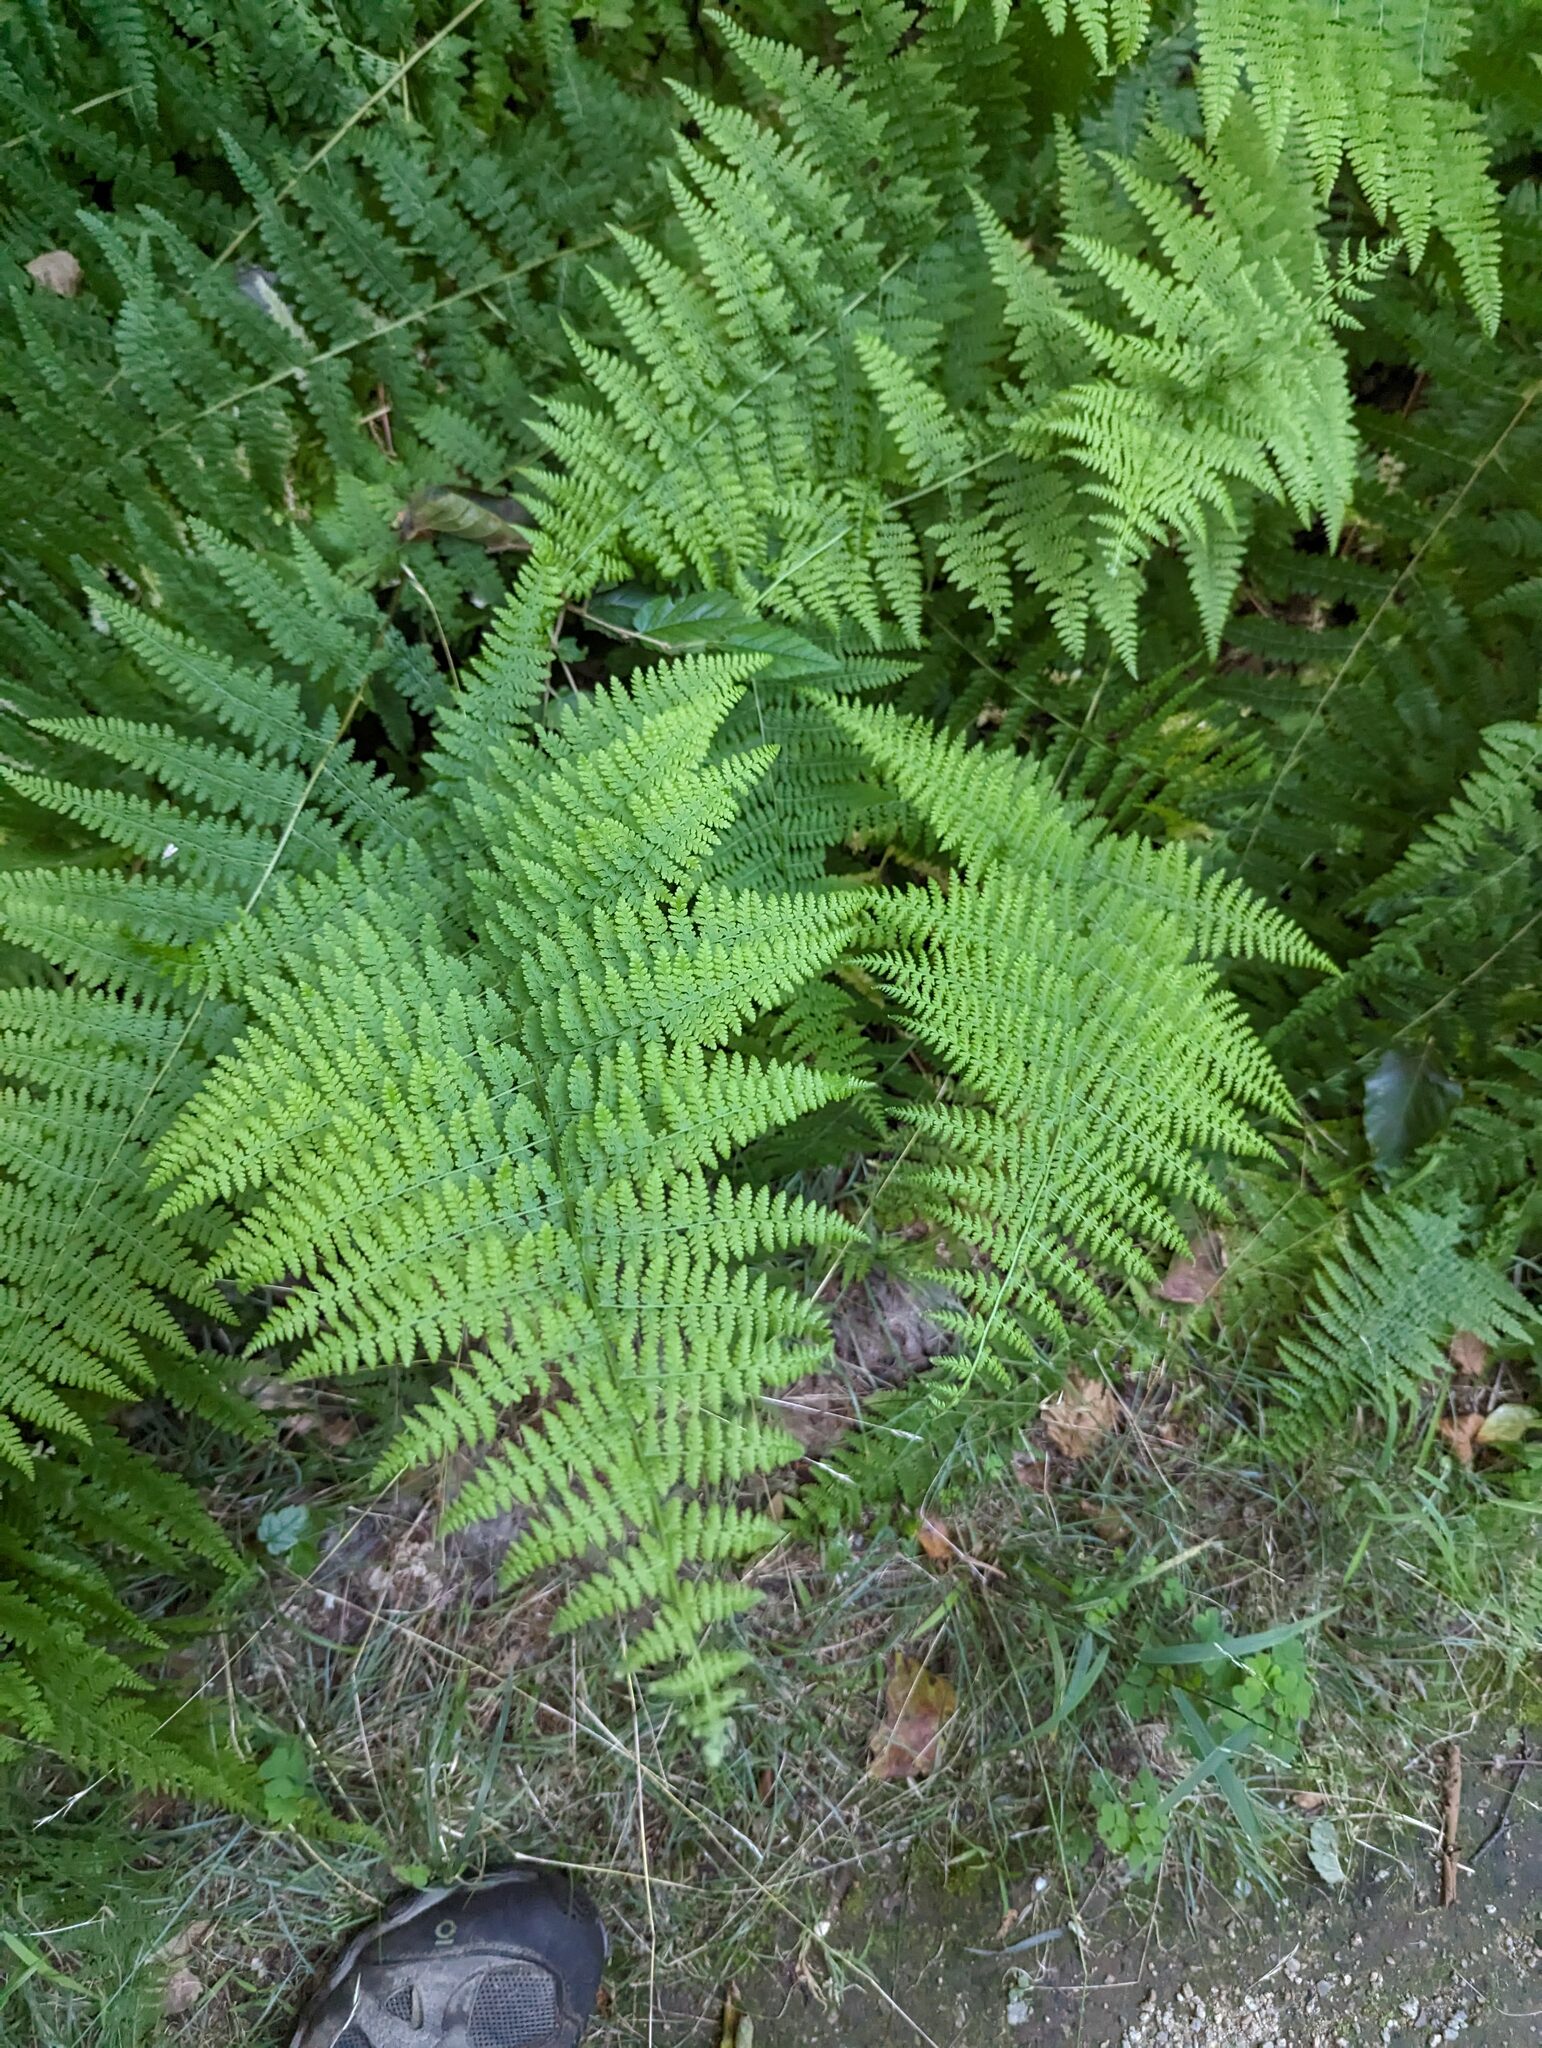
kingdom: Plantae
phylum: Tracheophyta
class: Polypodiopsida
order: Polypodiales
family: Dennstaedtiaceae
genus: Sitobolium
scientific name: Sitobolium punctilobum
